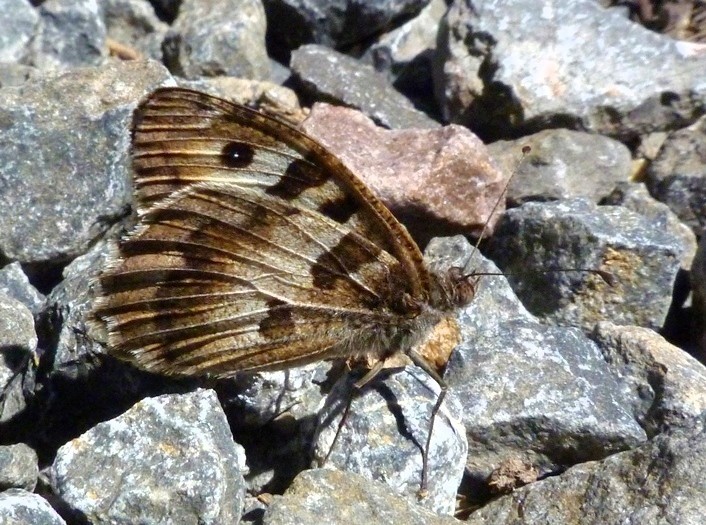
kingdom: Animalia
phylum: Arthropoda
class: Insecta
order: Lepidoptera
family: Nymphalidae
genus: Satyrus
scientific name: Satyrus briseis
